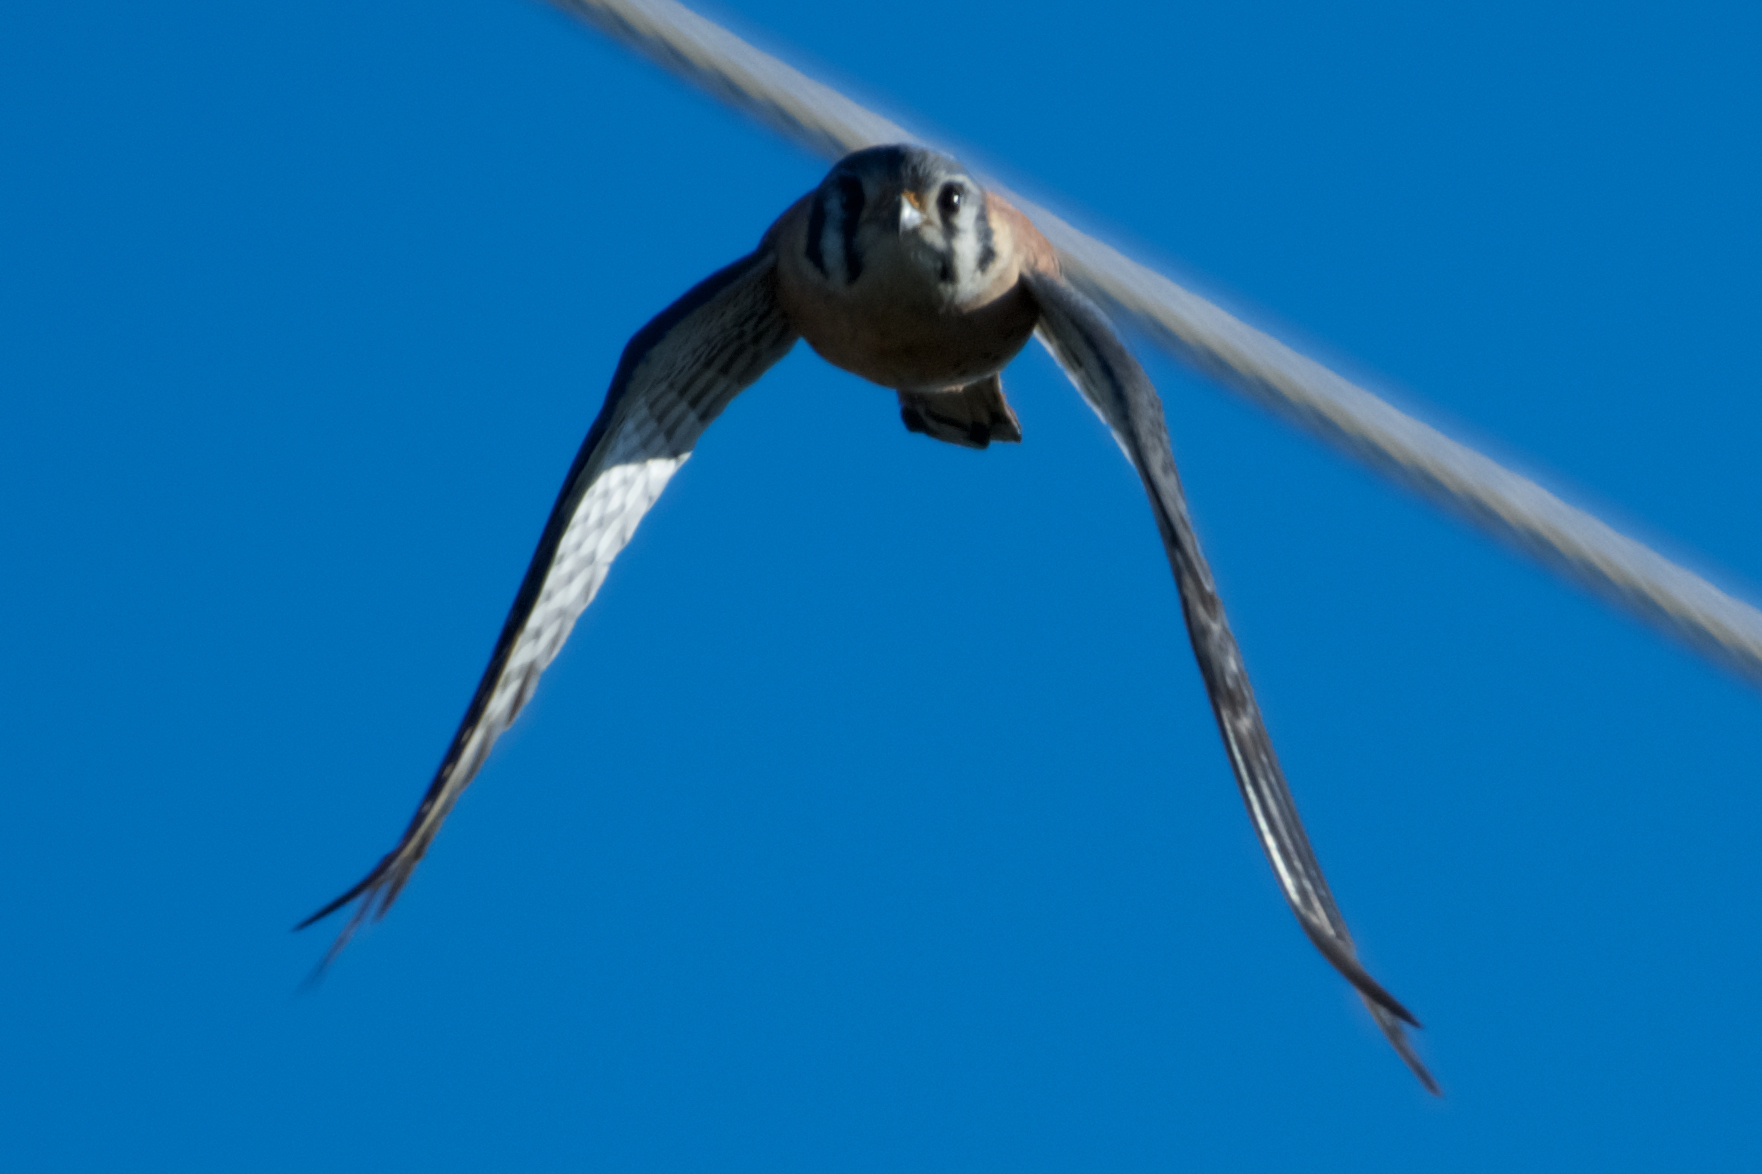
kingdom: Animalia
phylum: Chordata
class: Aves
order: Falconiformes
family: Falconidae
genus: Falco
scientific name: Falco sparverius
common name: American kestrel
